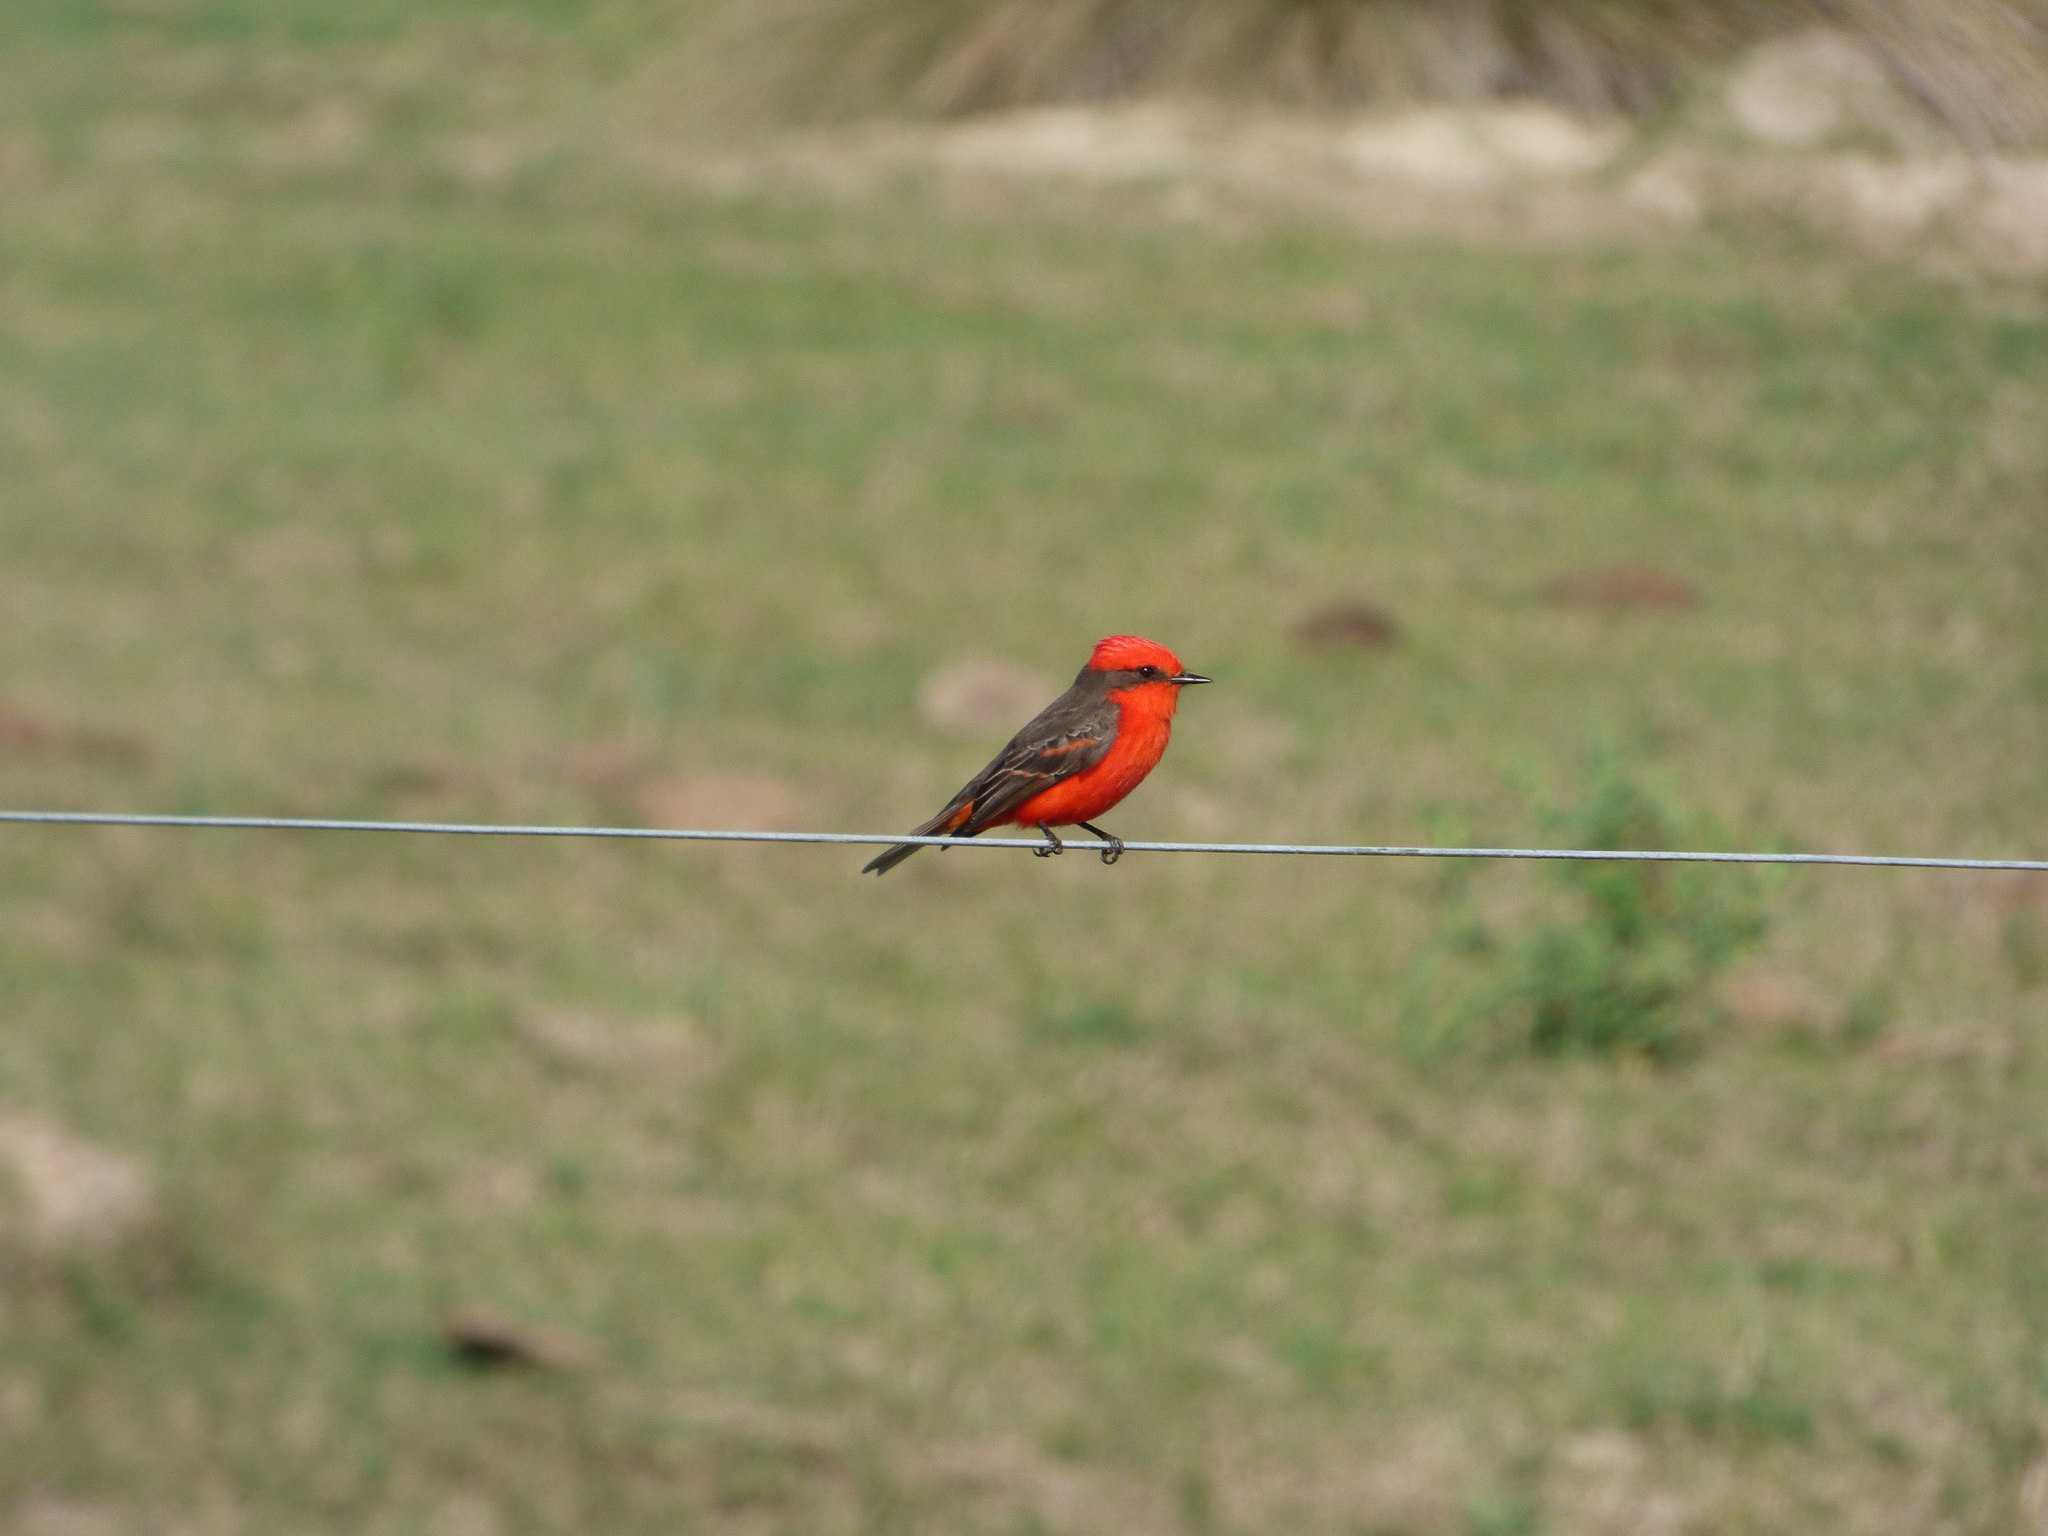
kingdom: Animalia
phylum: Chordata
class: Aves
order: Passeriformes
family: Tyrannidae
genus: Pyrocephalus
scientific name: Pyrocephalus rubinus
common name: Vermilion flycatcher
